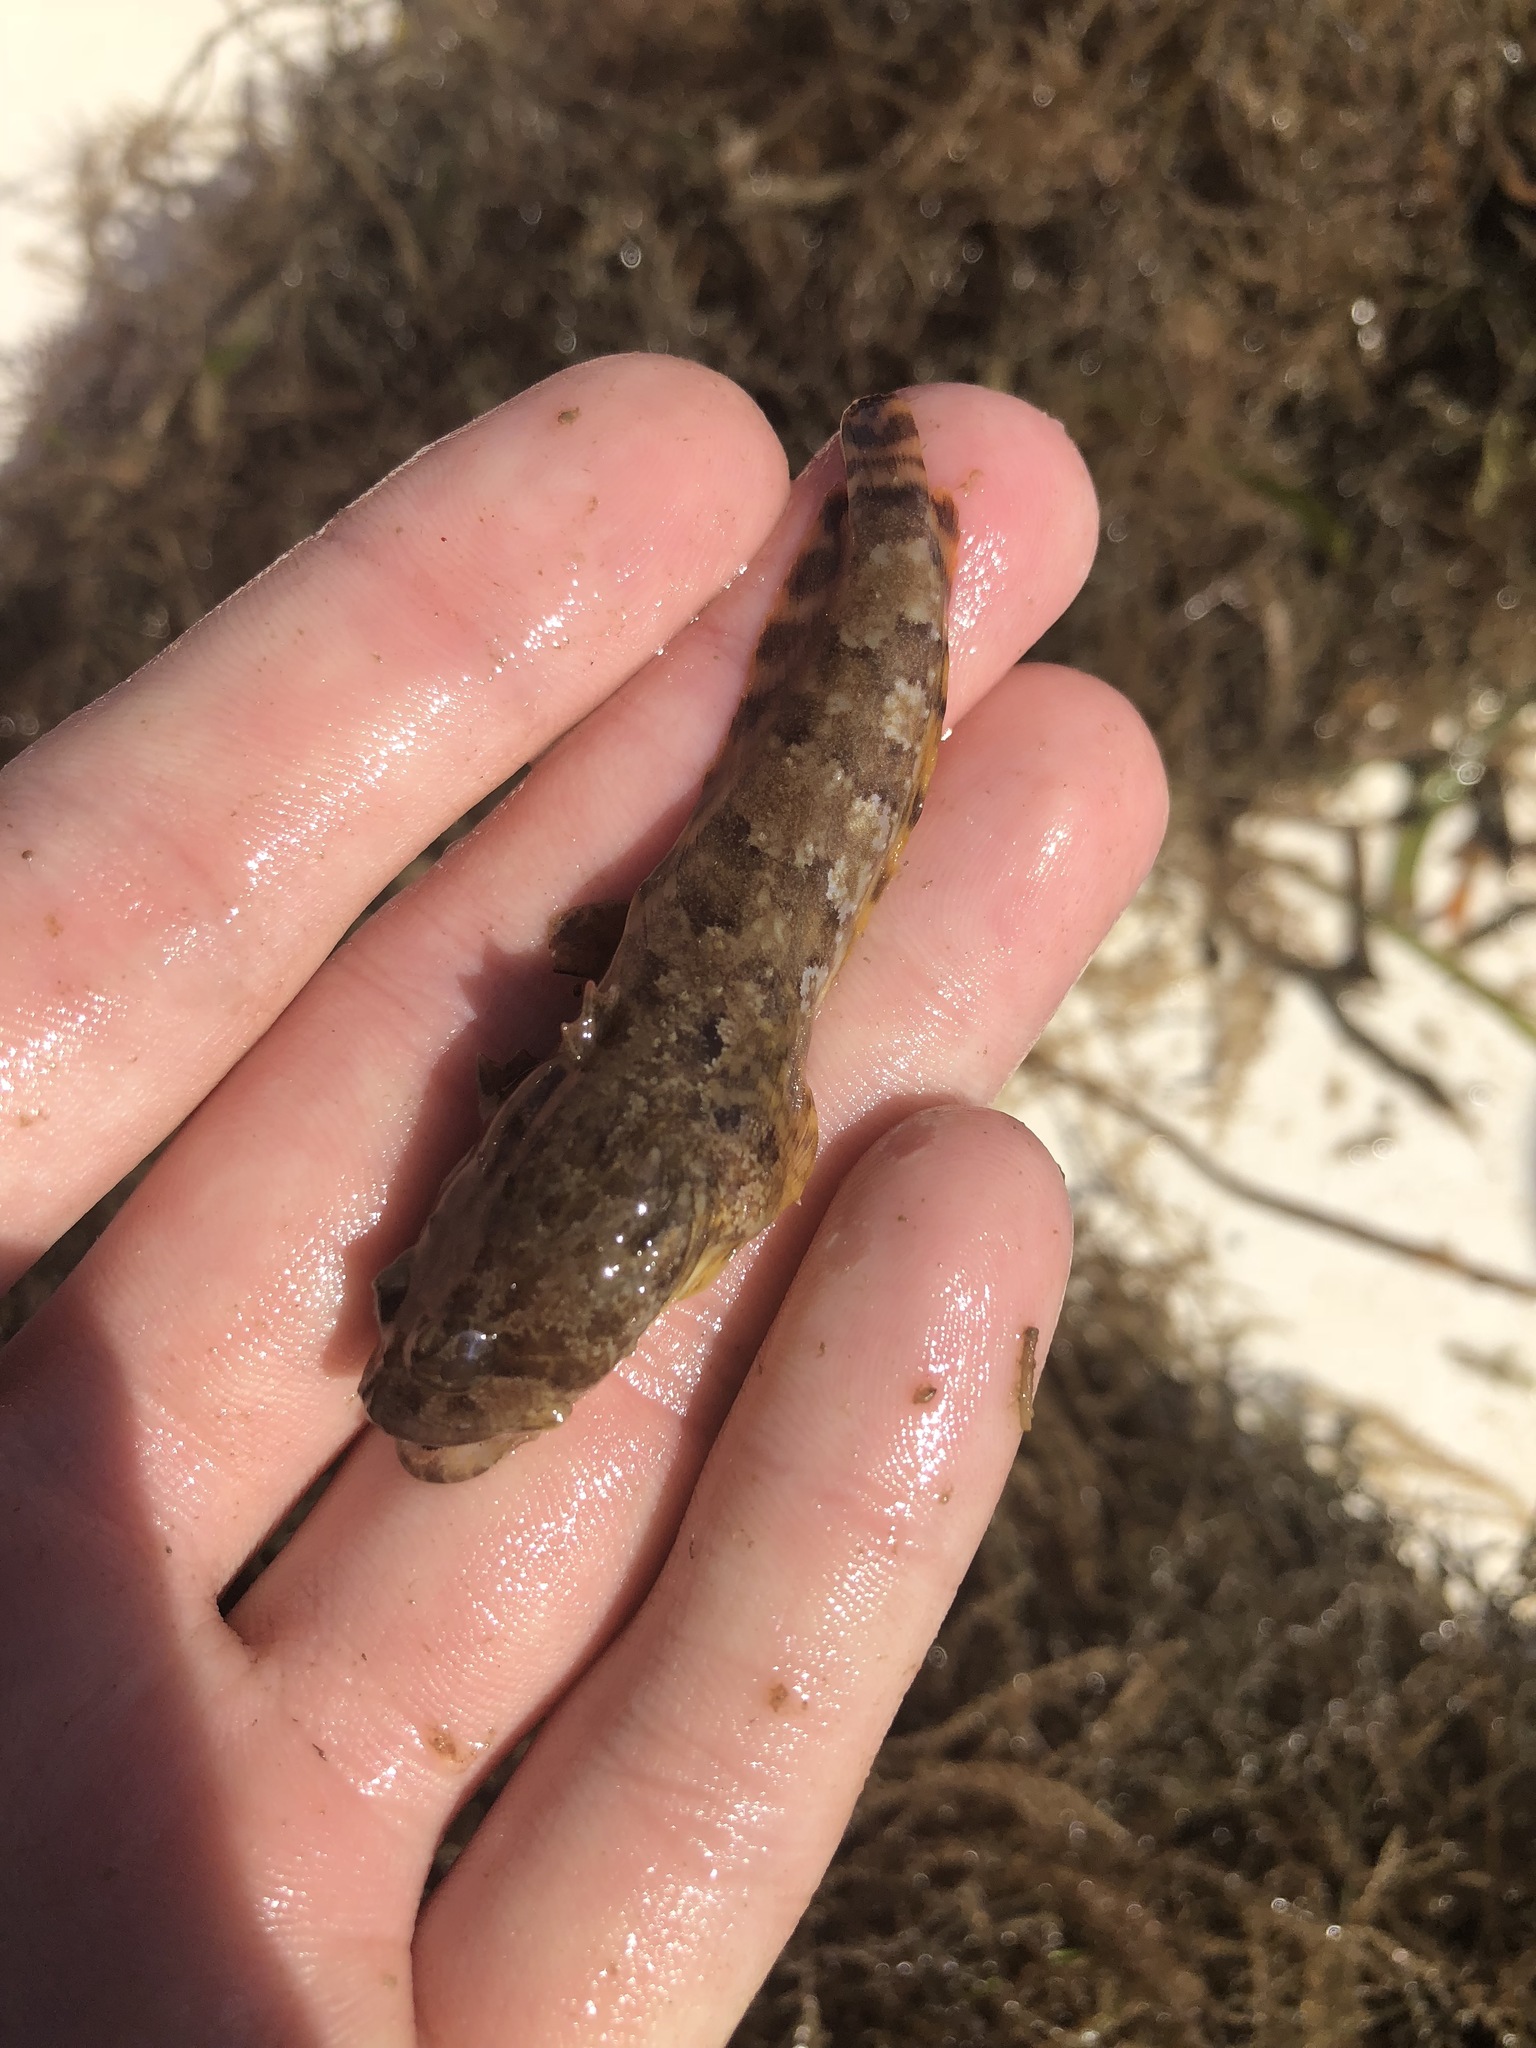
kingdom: Animalia
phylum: Chordata
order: Batrachoidiformes
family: Batrachoididae
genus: Opsanus
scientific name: Opsanus beta
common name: Gulf toadfish
